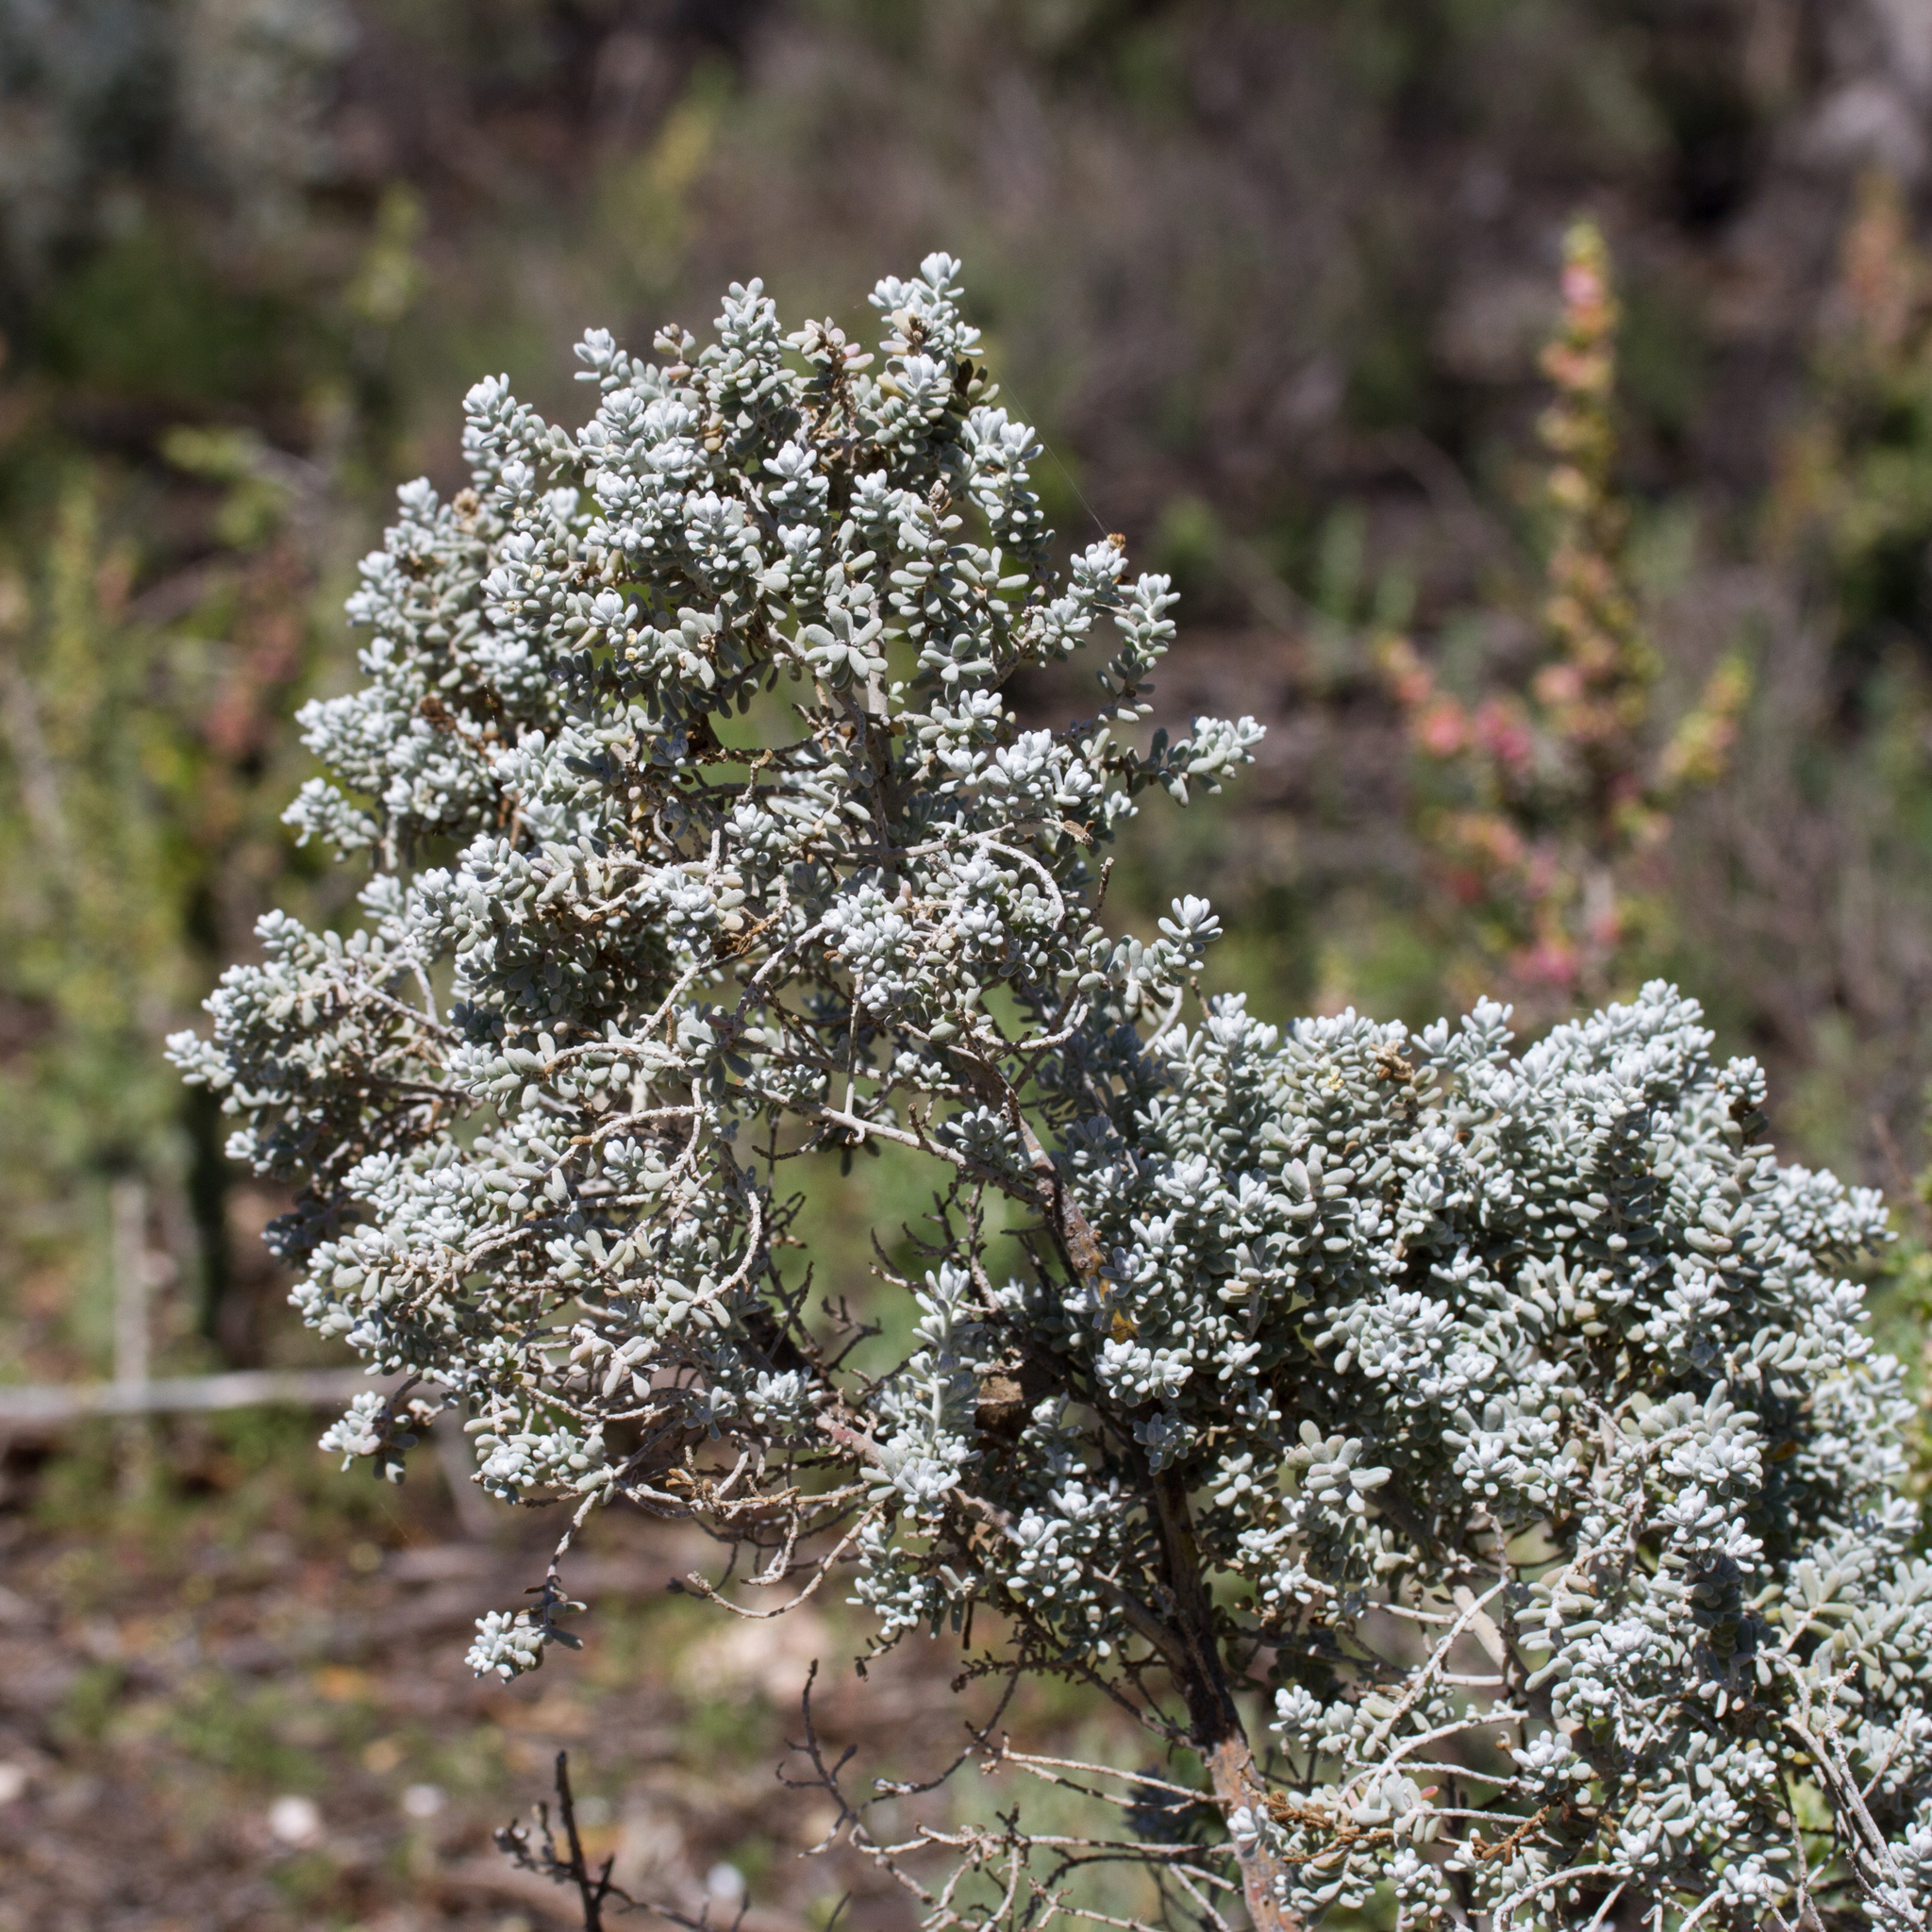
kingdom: Plantae
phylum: Tracheophyta
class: Magnoliopsida
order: Caryophyllales
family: Amaranthaceae
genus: Maireana
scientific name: Maireana sedifolia
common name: Hoary bluebush
